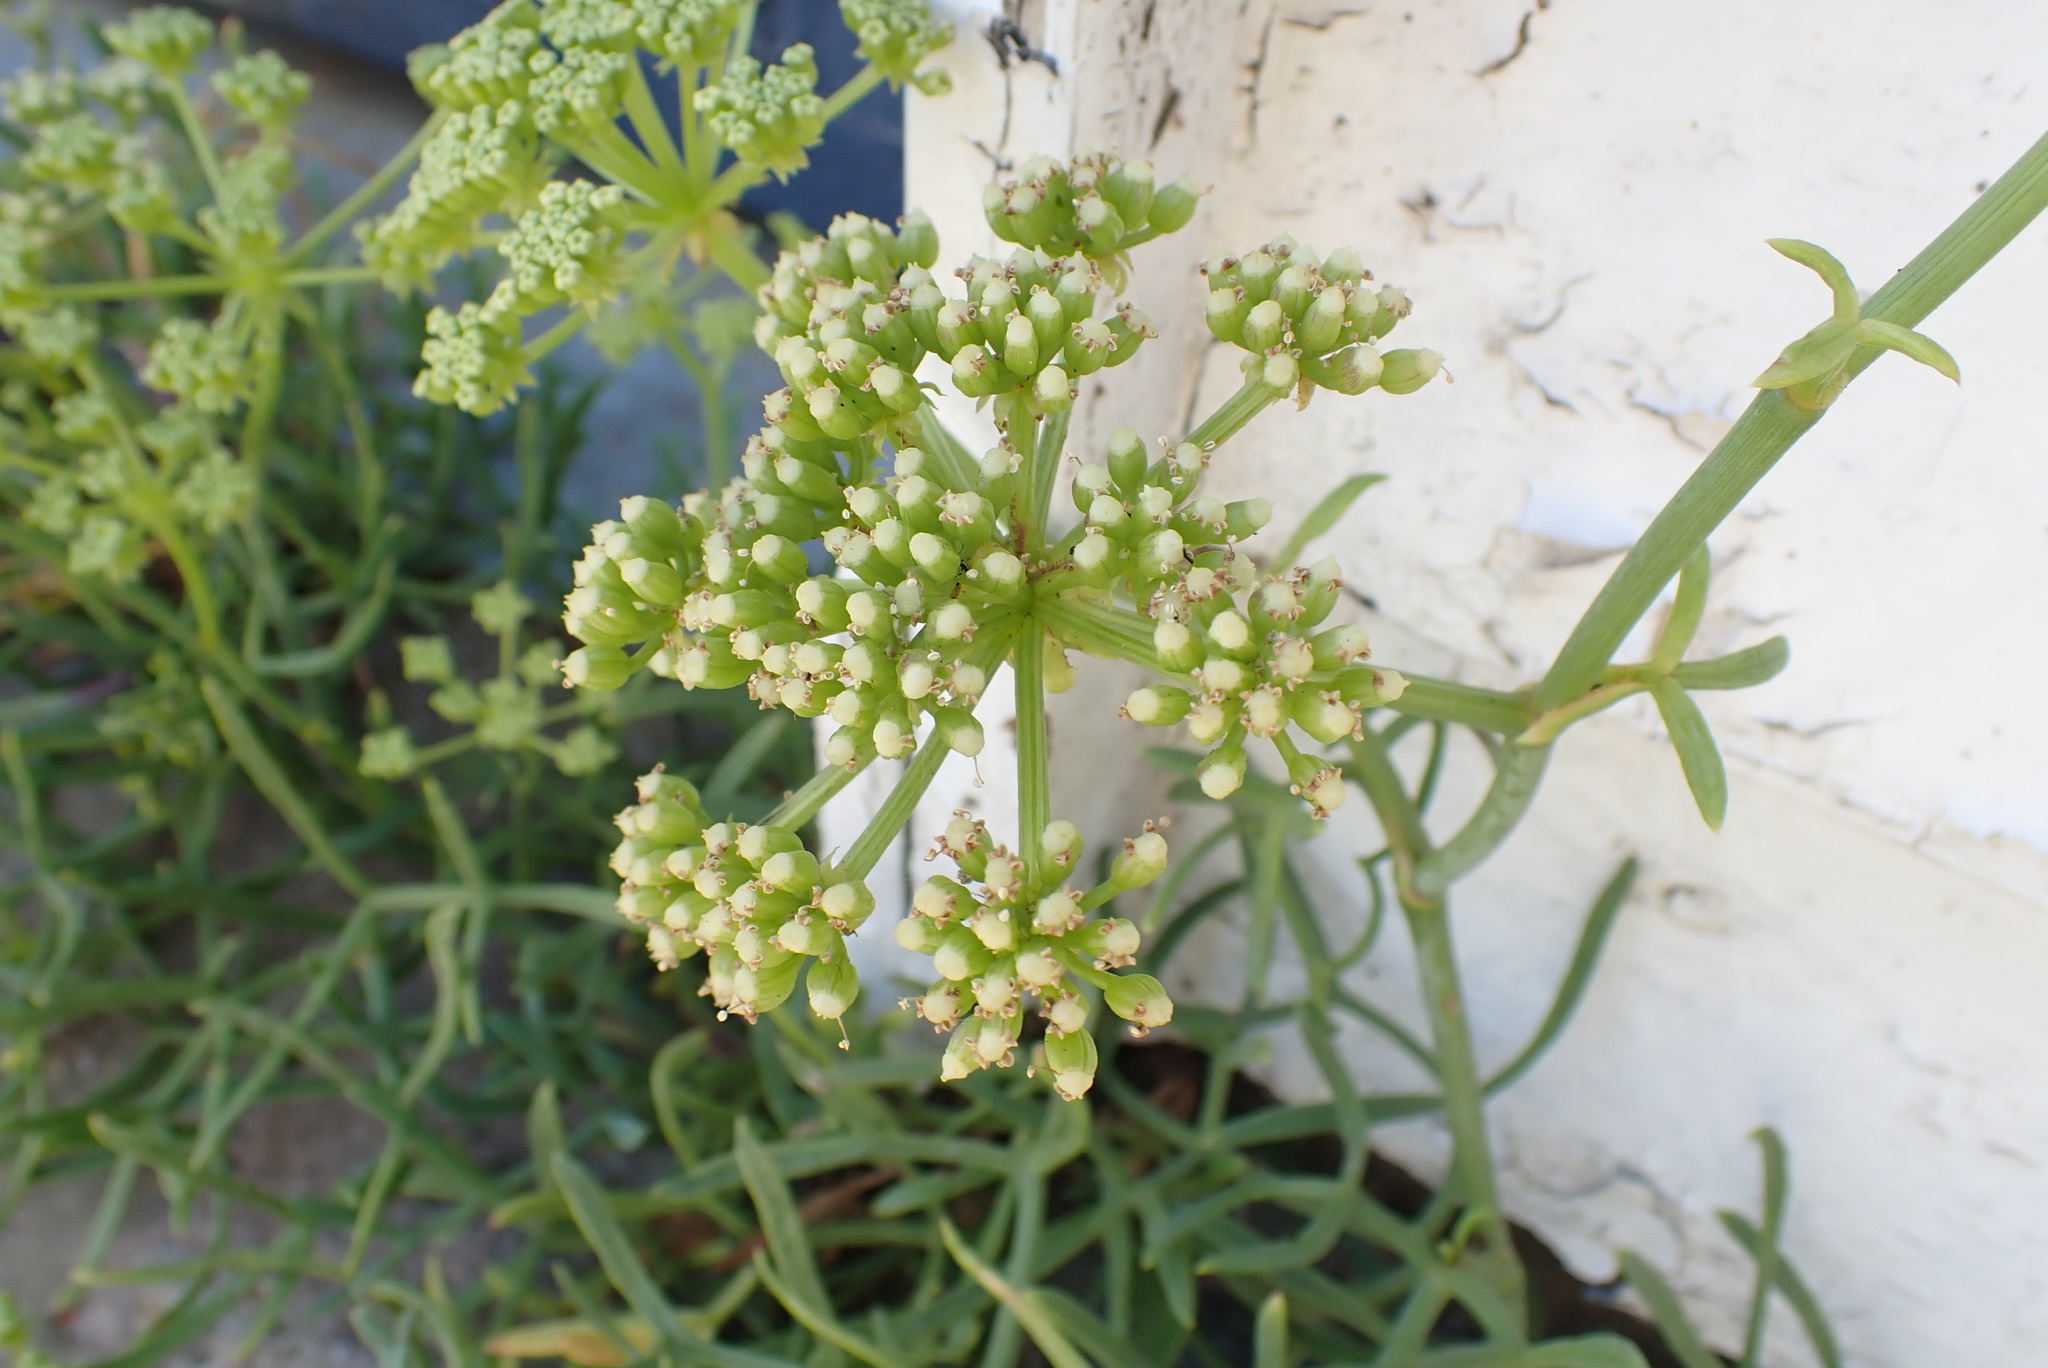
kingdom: Plantae
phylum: Tracheophyta
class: Magnoliopsida
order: Apiales
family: Apiaceae
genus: Crithmum
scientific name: Crithmum maritimum
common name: Rock samphire
